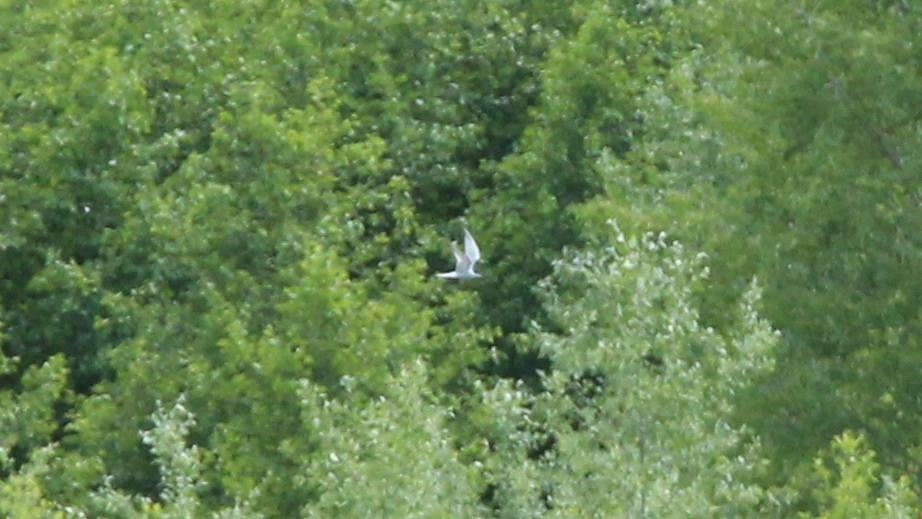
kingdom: Animalia
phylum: Chordata
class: Aves
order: Charadriiformes
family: Laridae
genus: Sterna
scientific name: Sterna hirundo
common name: Common tern
